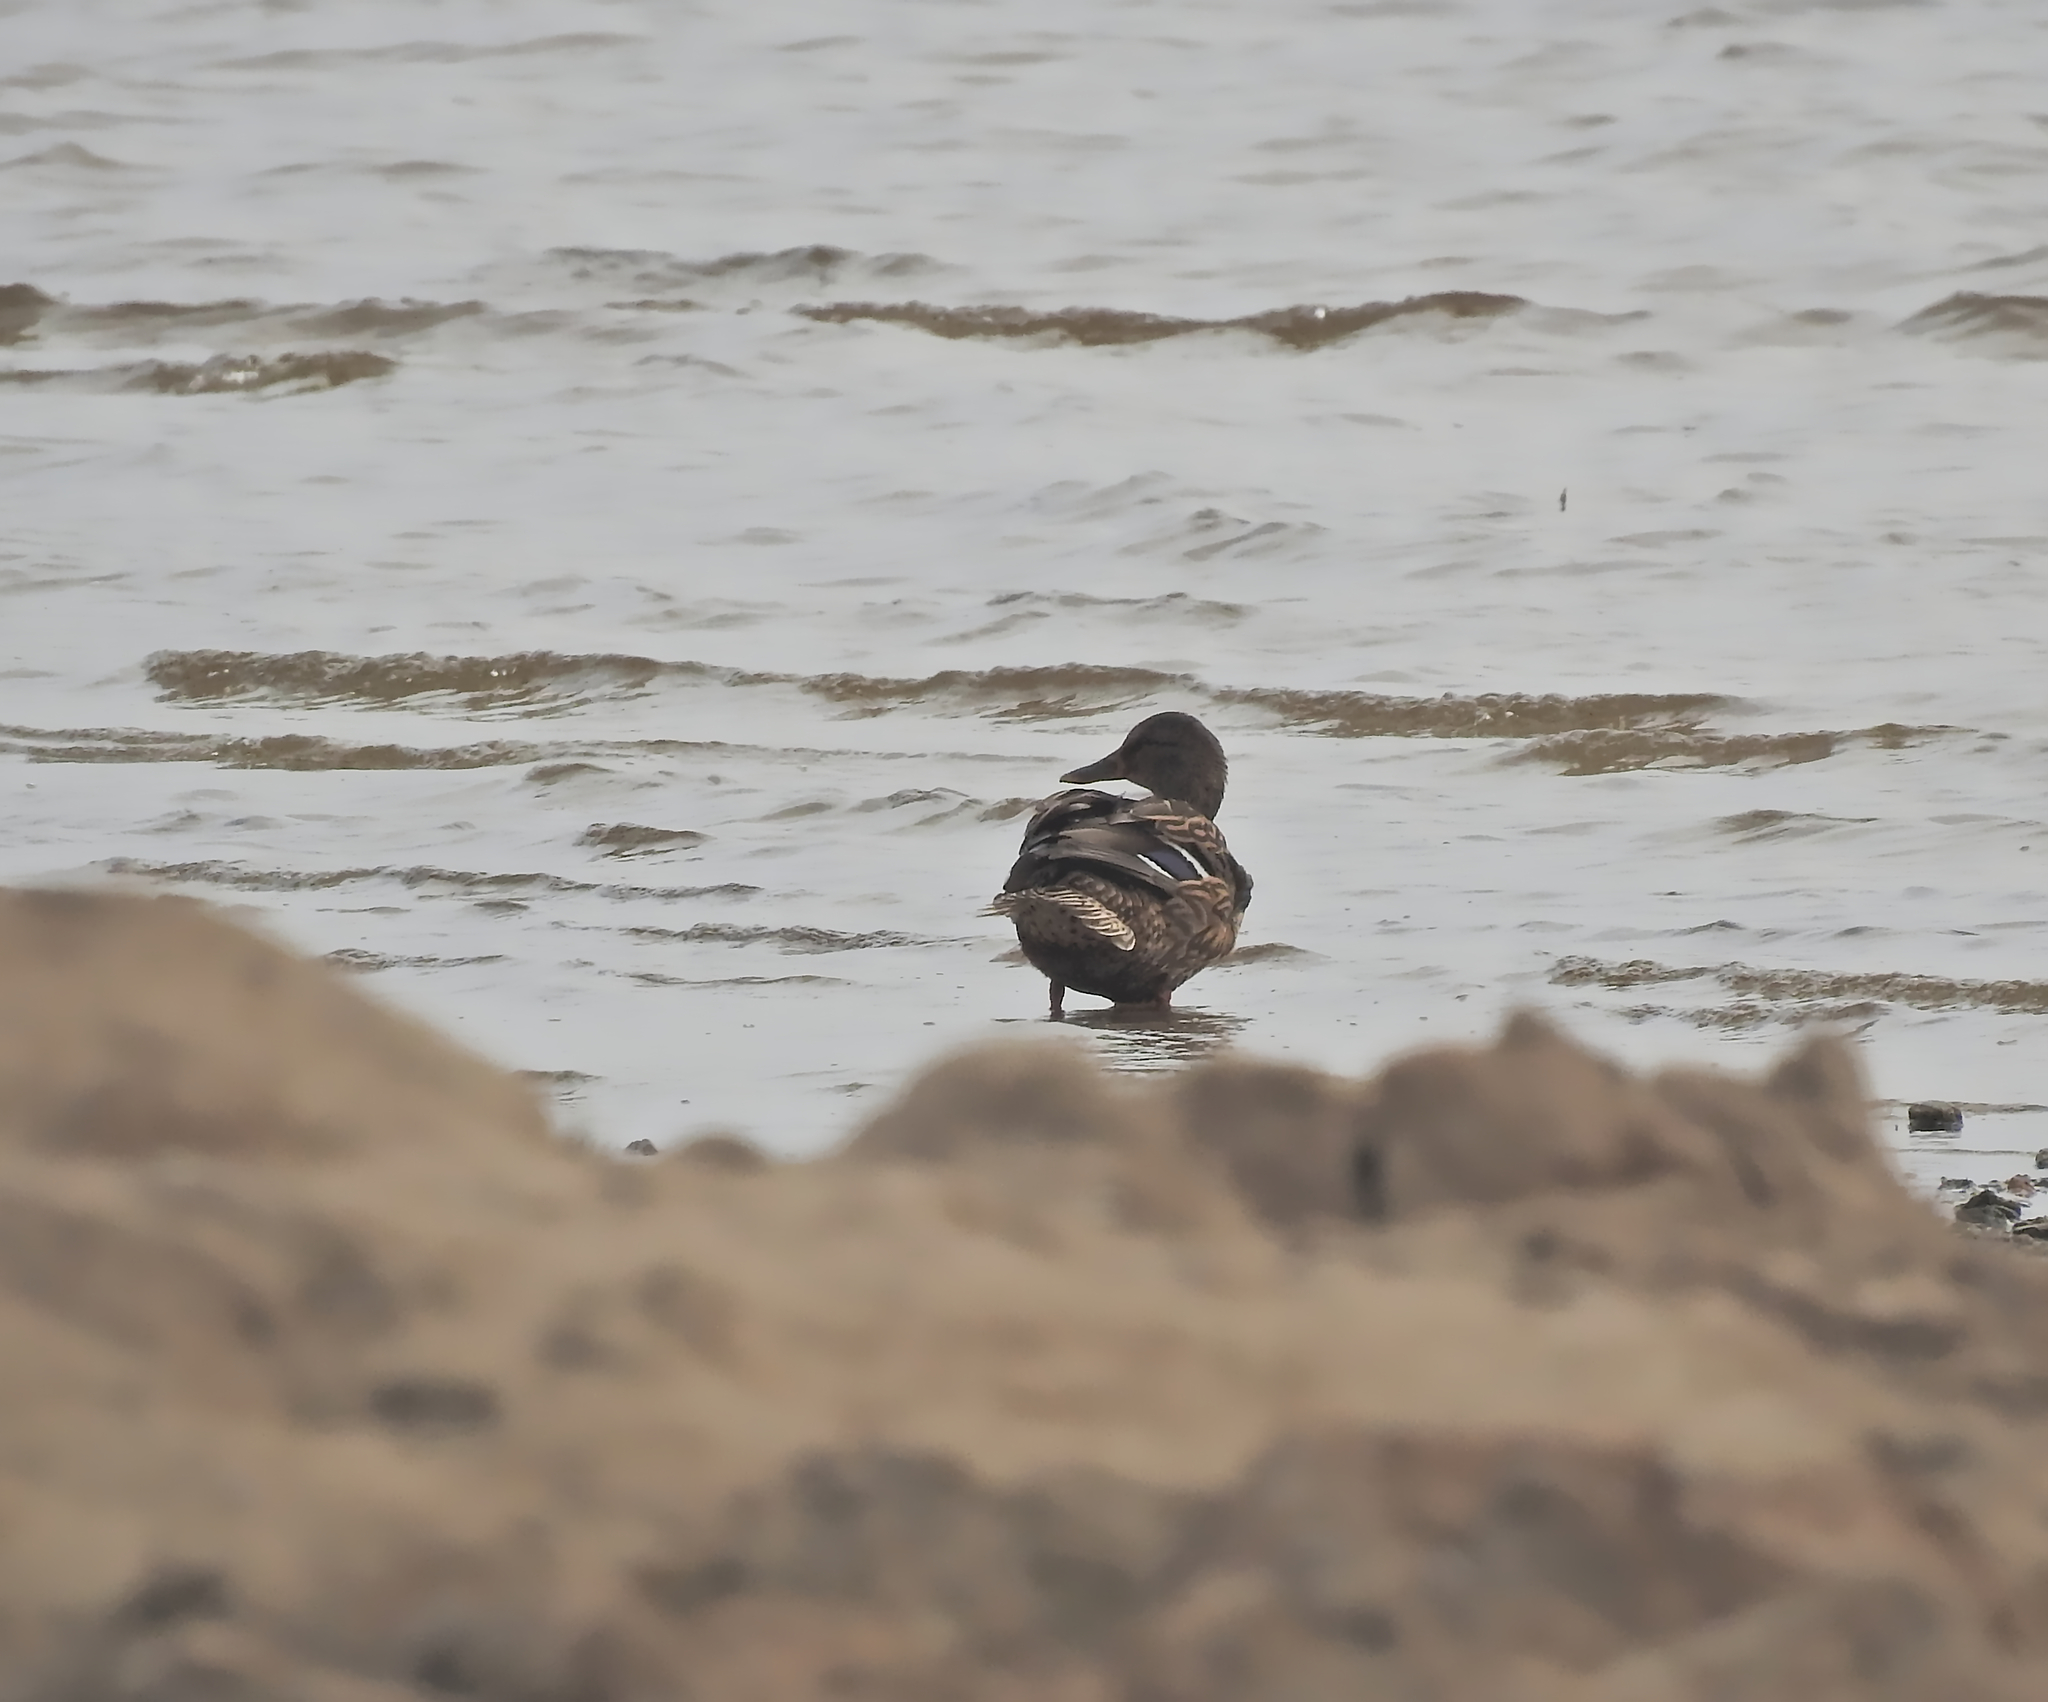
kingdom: Animalia
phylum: Chordata
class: Aves
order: Anseriformes
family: Anatidae
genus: Anas
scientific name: Anas platyrhynchos
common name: Mallard
